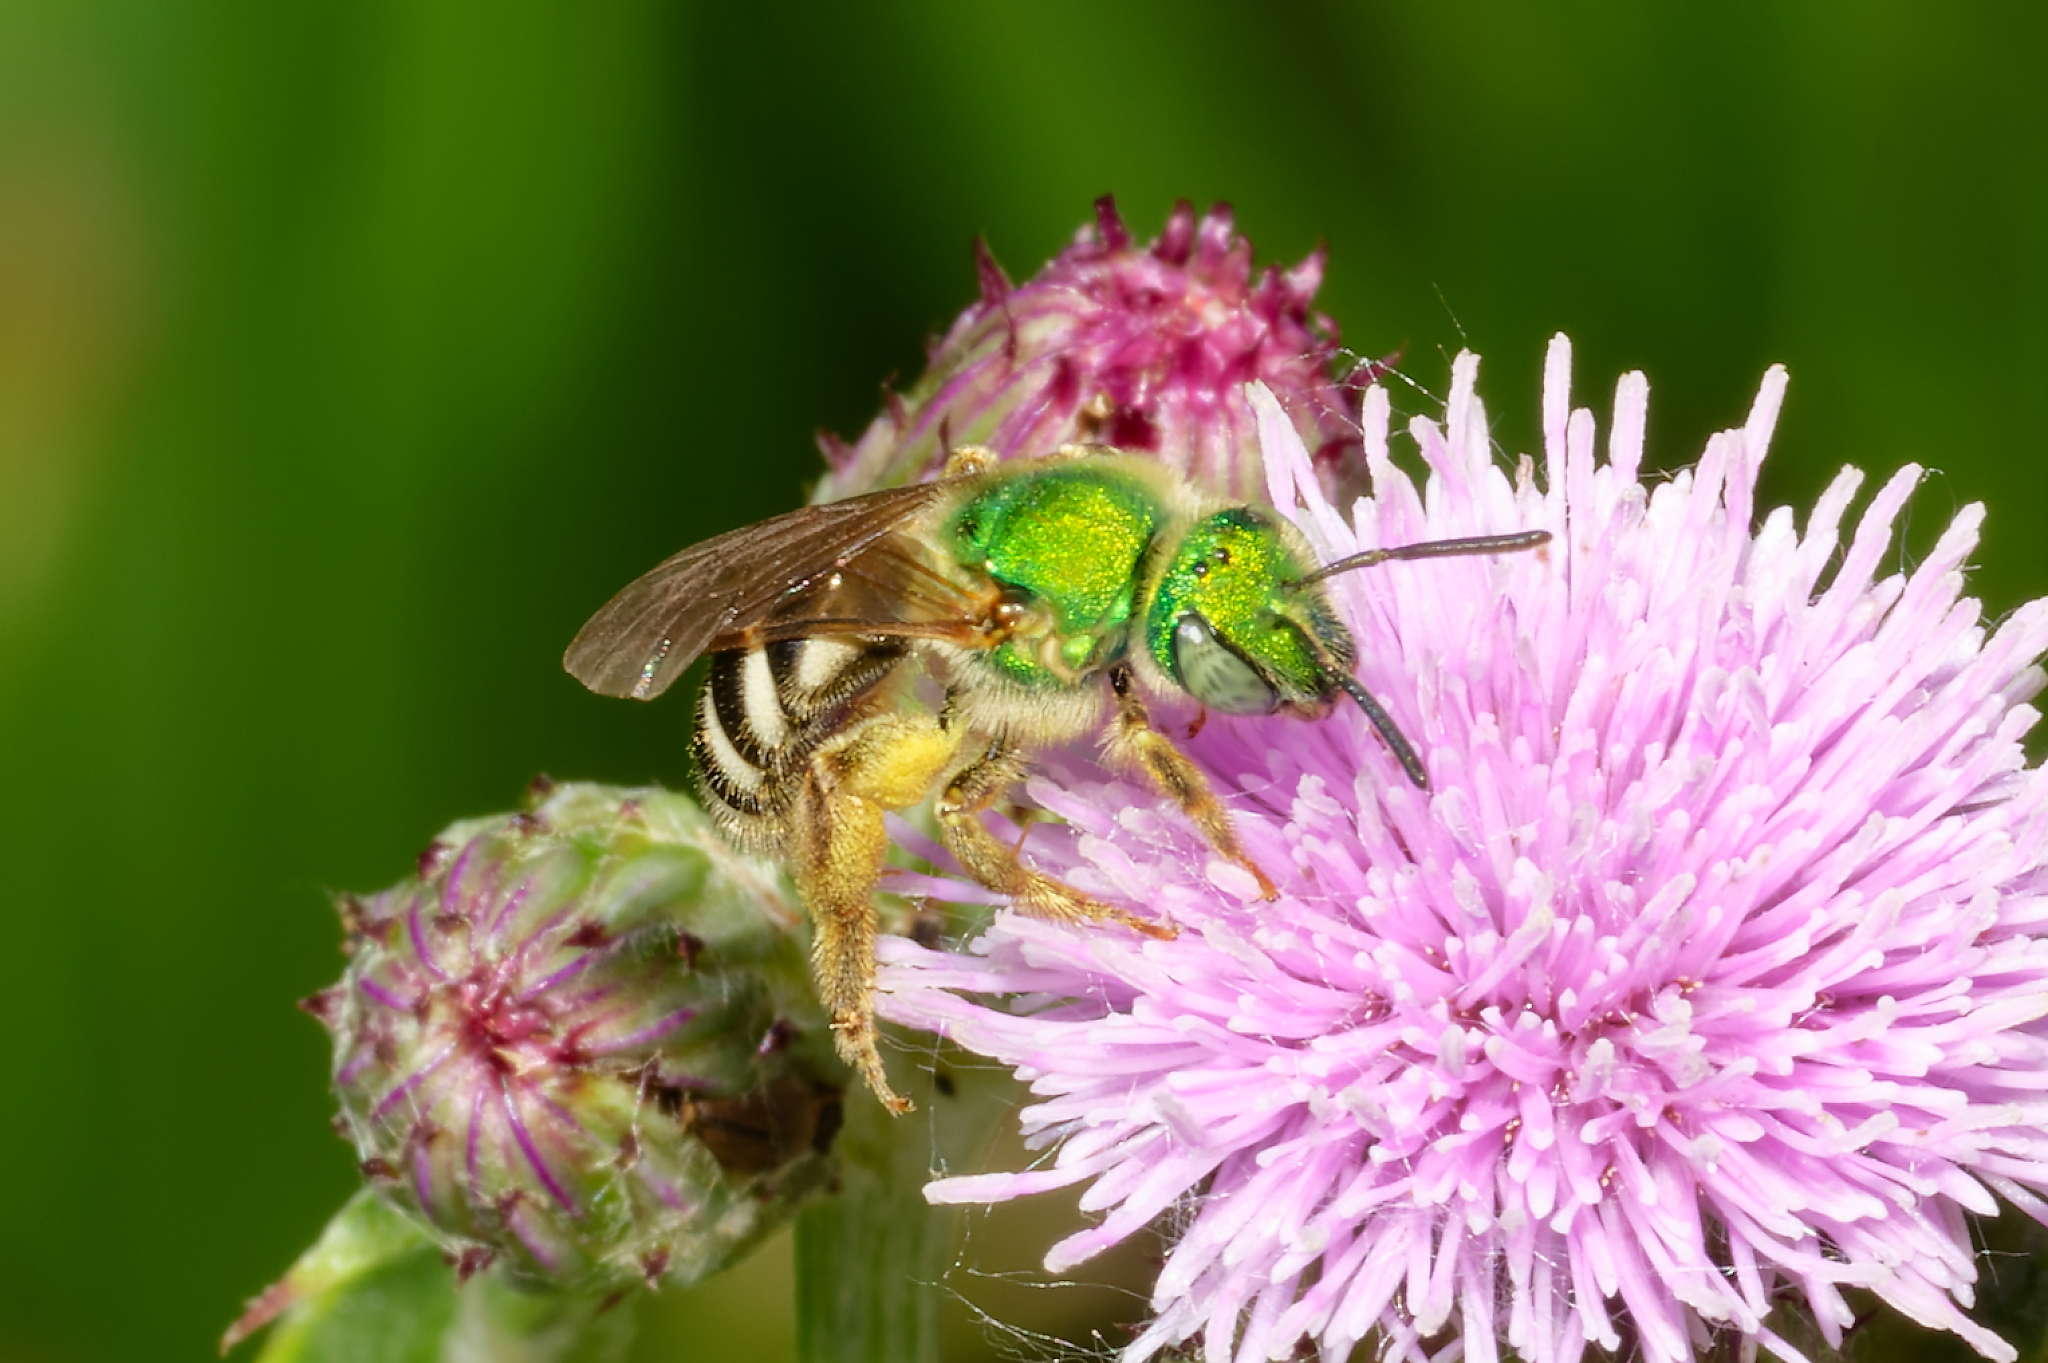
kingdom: Animalia
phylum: Arthropoda
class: Insecta
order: Hymenoptera
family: Halictidae
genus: Agapostemon
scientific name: Agapostemon virescens
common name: Bicolored striped sweat bee
